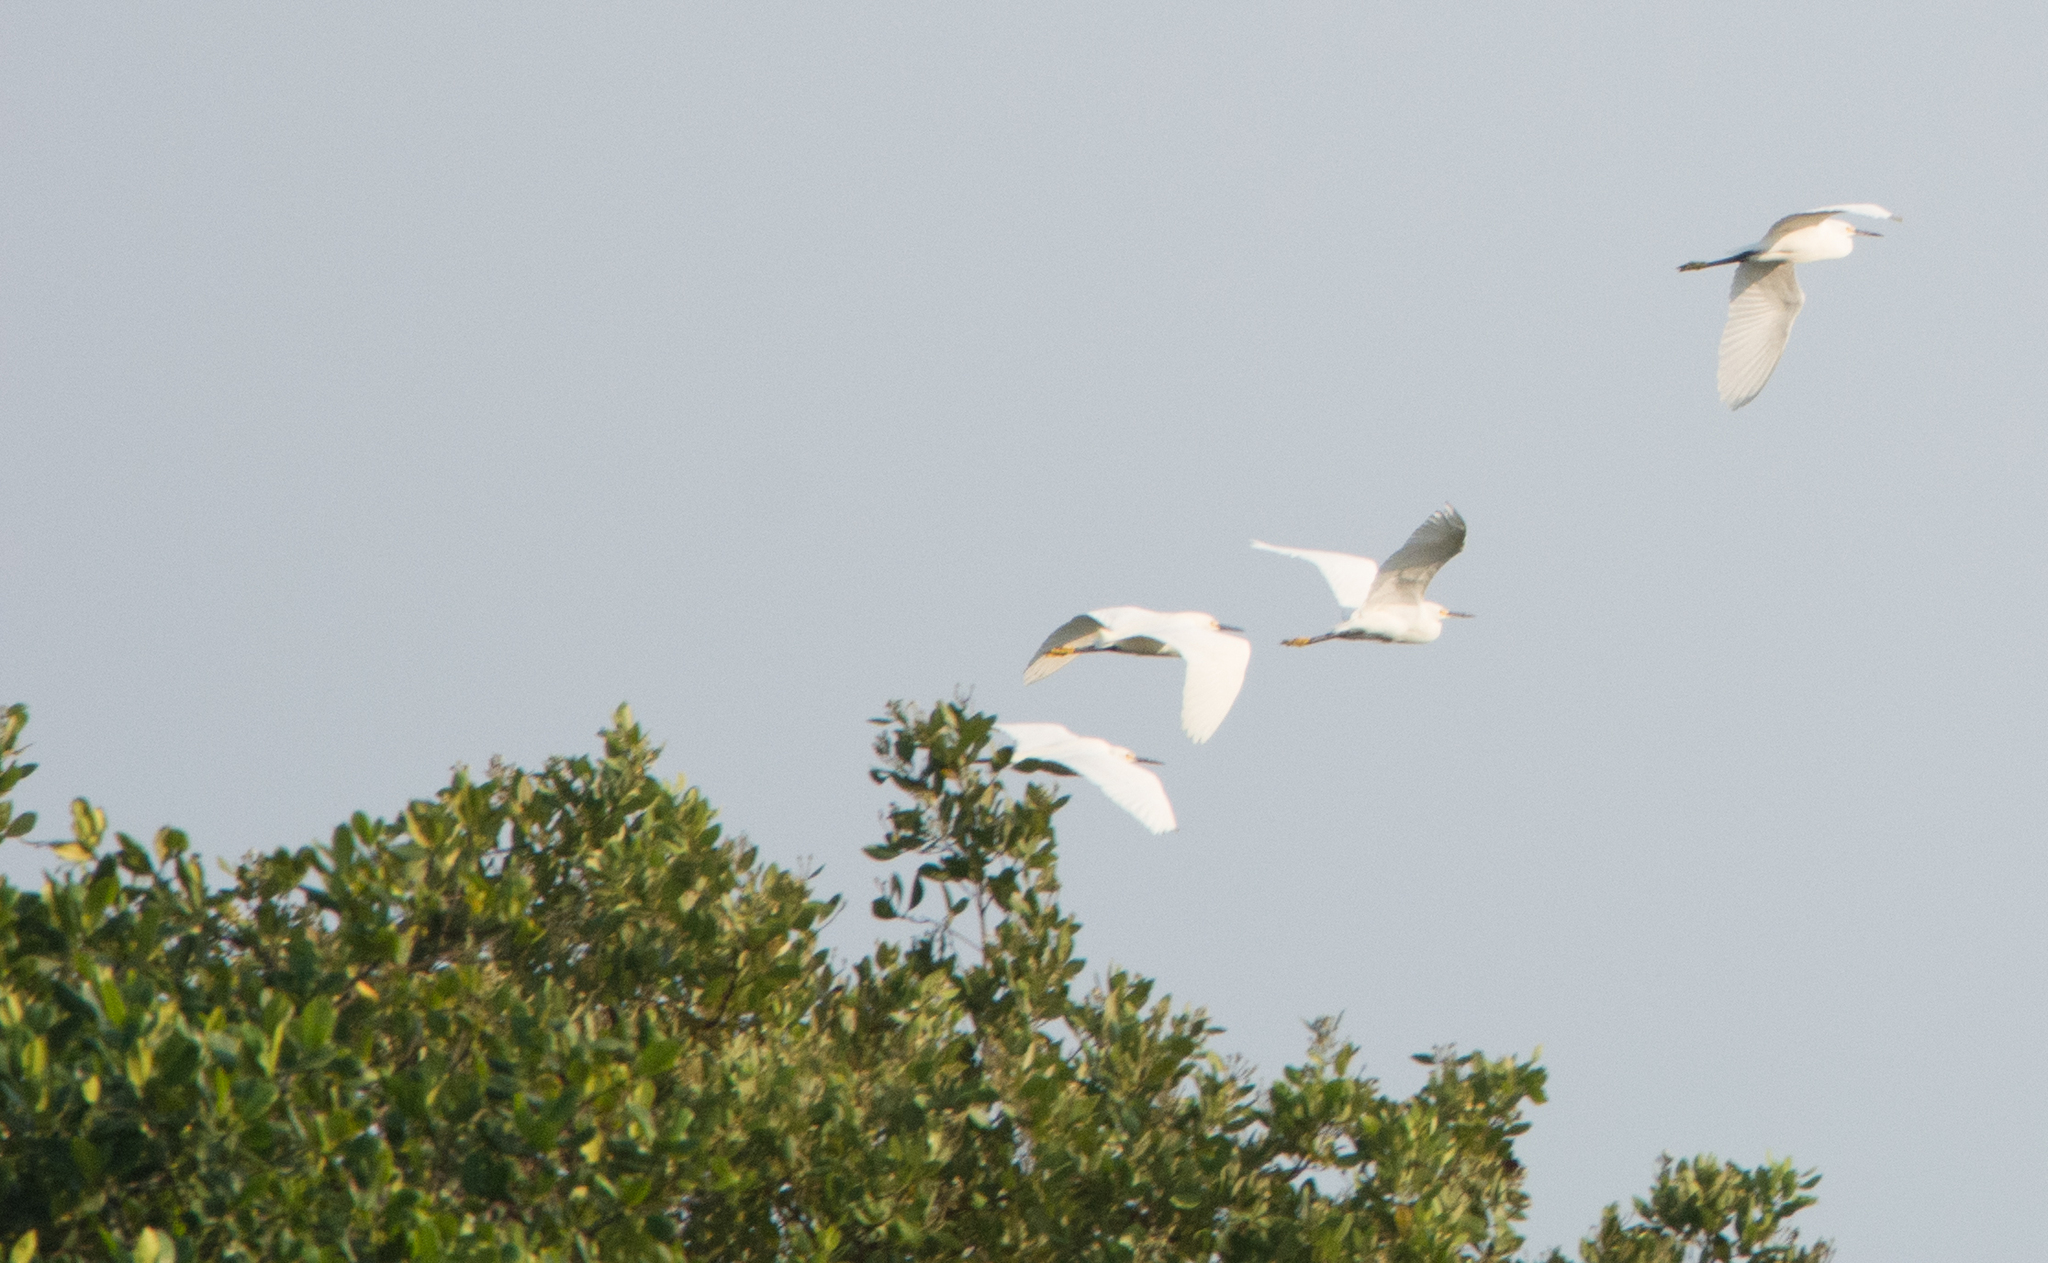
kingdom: Animalia
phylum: Chordata
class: Aves
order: Pelecaniformes
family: Ardeidae
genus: Egretta
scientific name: Egretta thula
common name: Snowy egret
